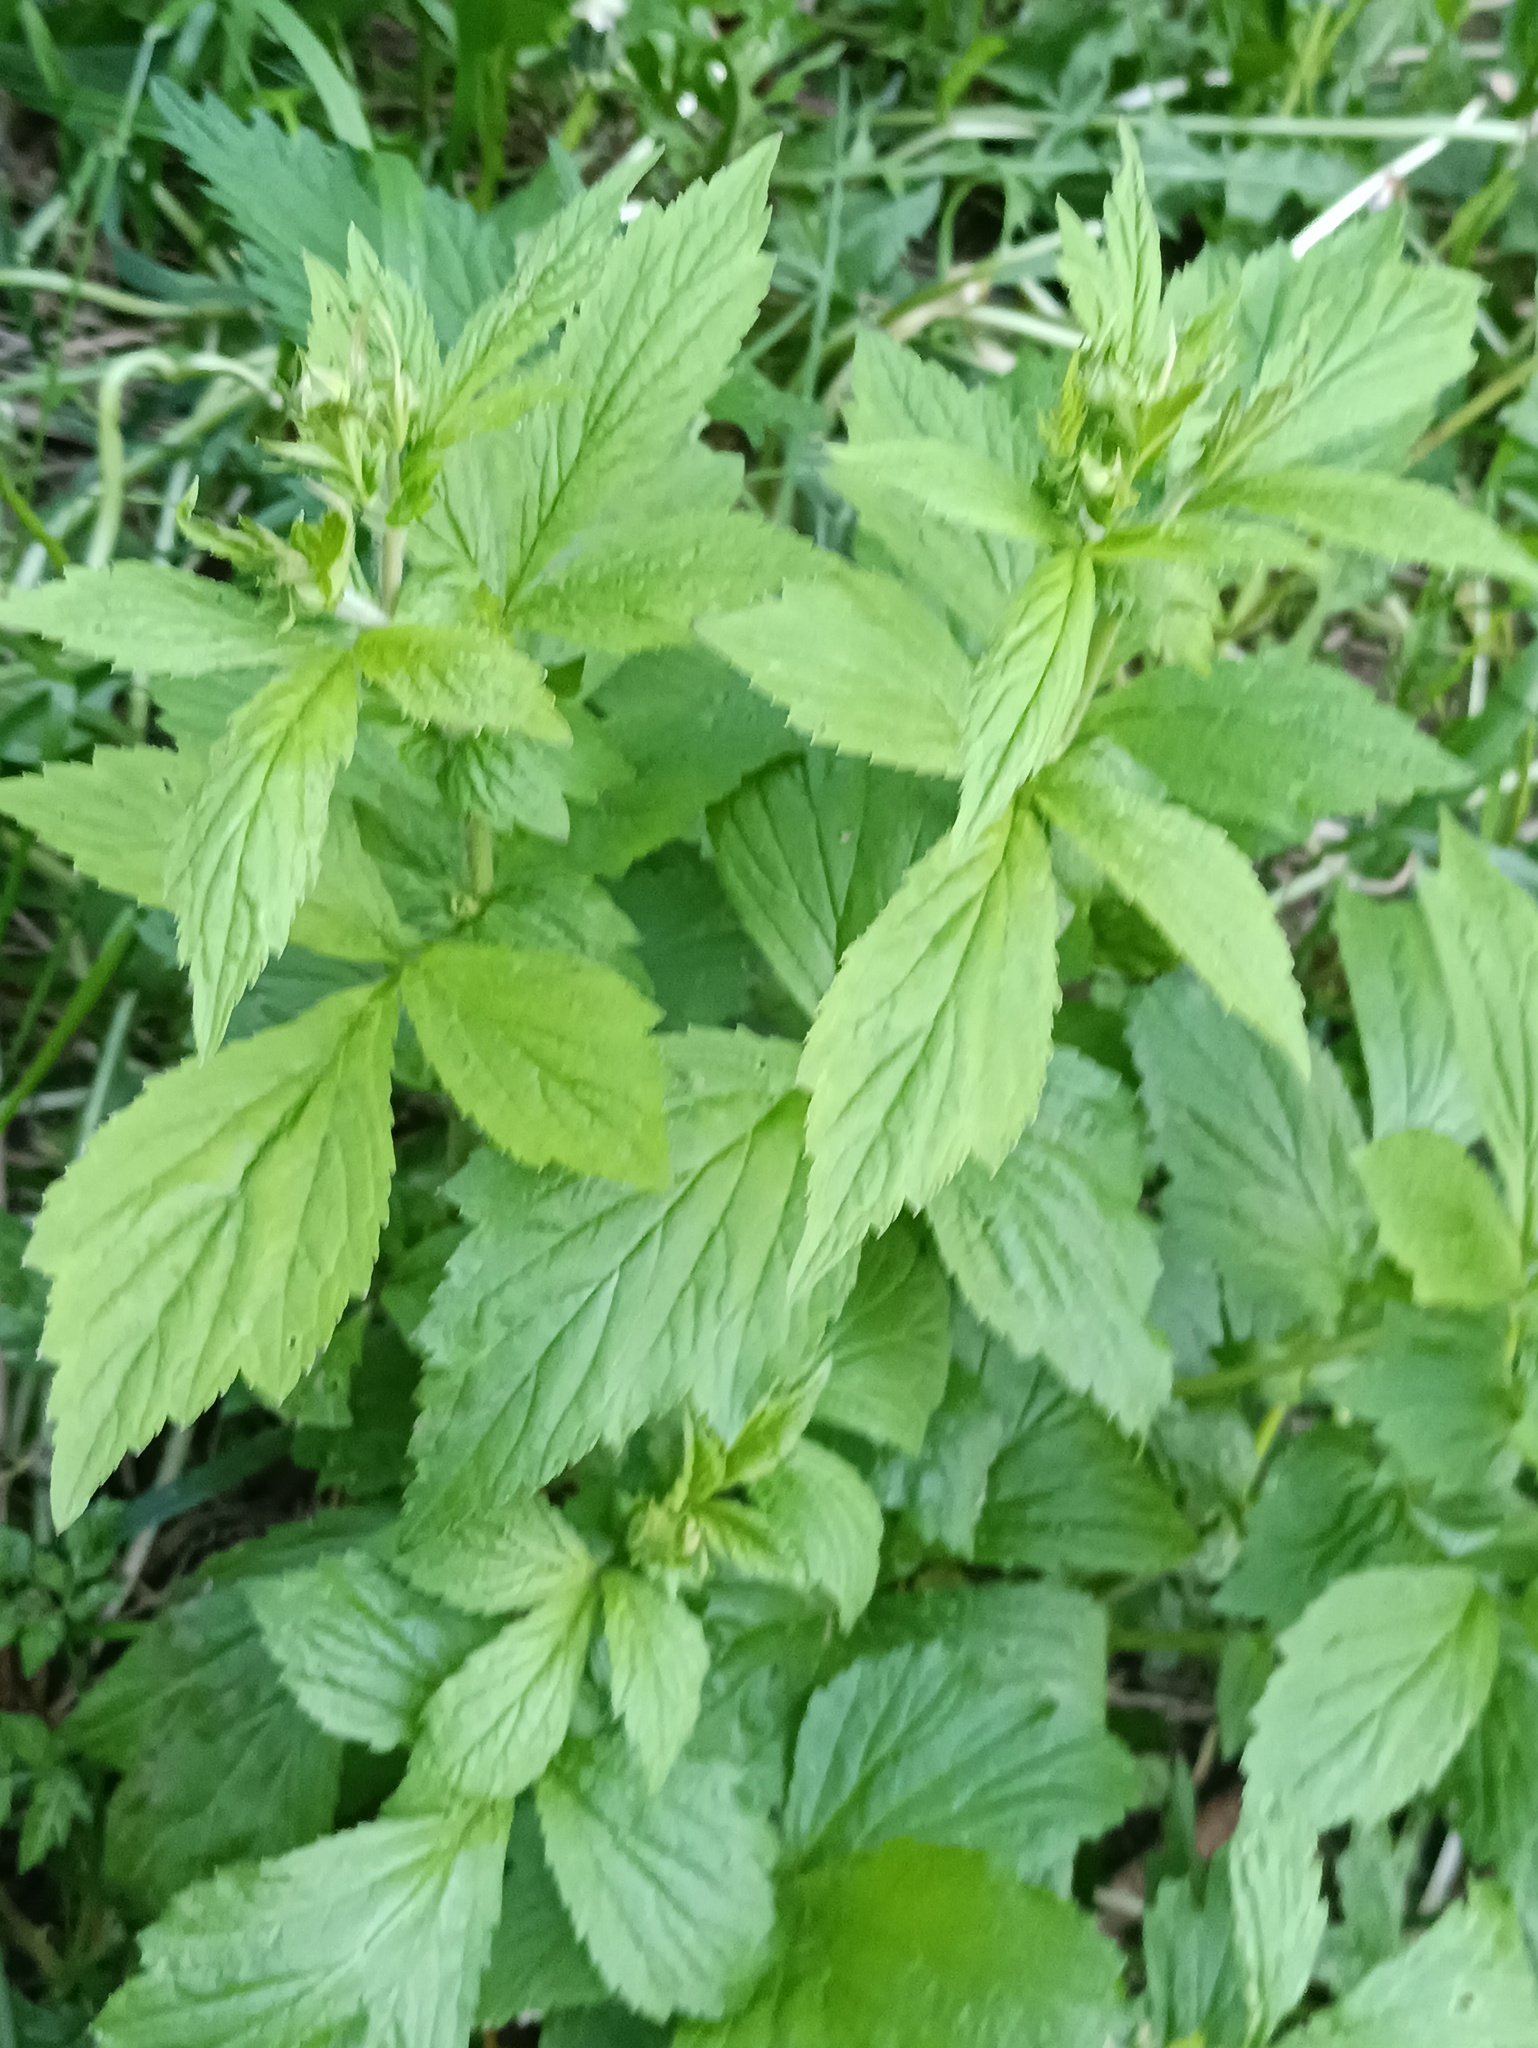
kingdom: Plantae
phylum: Tracheophyta
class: Magnoliopsida
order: Rosales
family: Rosaceae
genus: Geum
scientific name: Geum aleppicum
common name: Yellow avens
